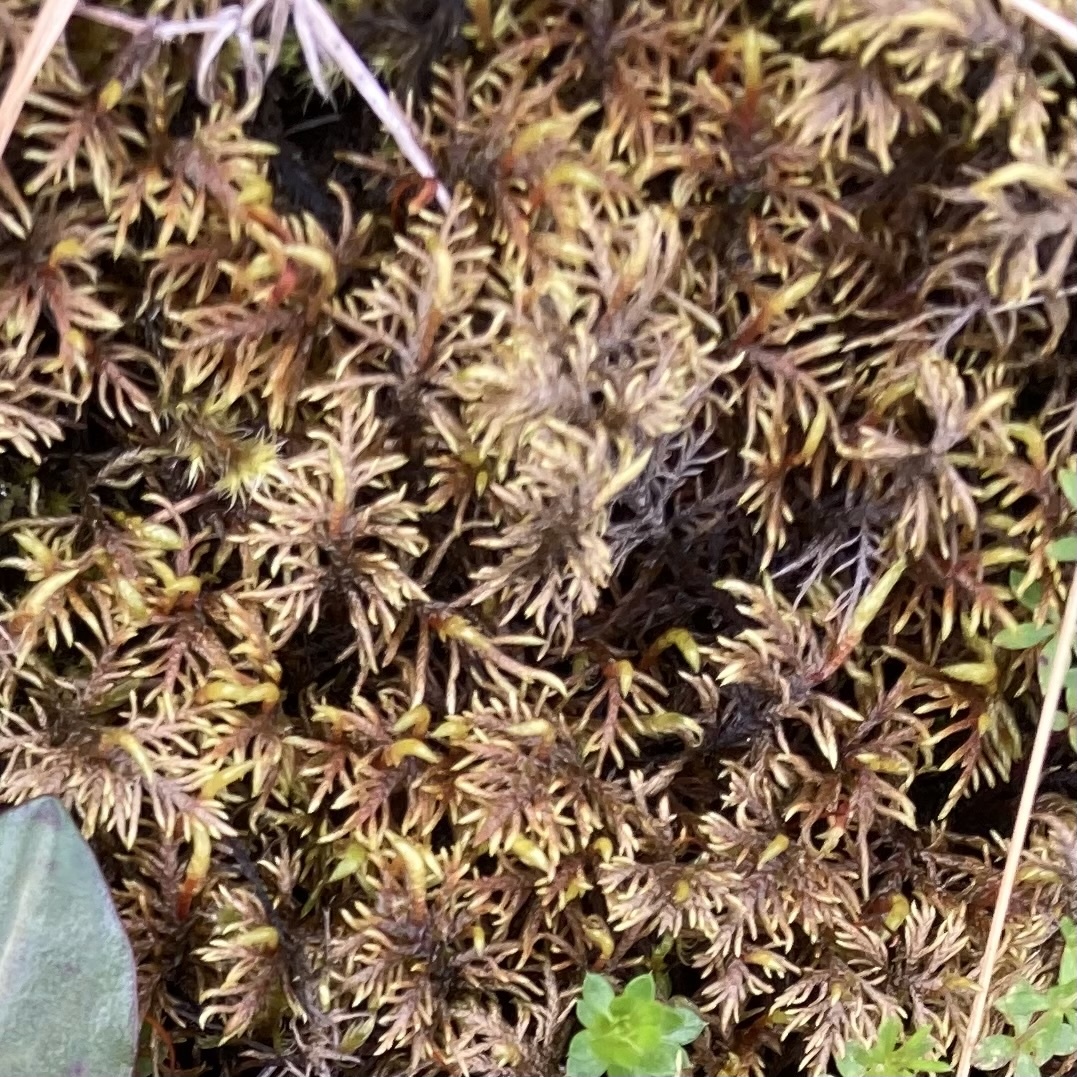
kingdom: Plantae
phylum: Bryophyta
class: Bryopsida
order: Hypnales
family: Hylocomiaceae
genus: Hylocomium
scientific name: Hylocomium splendens
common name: Stairstep moss
